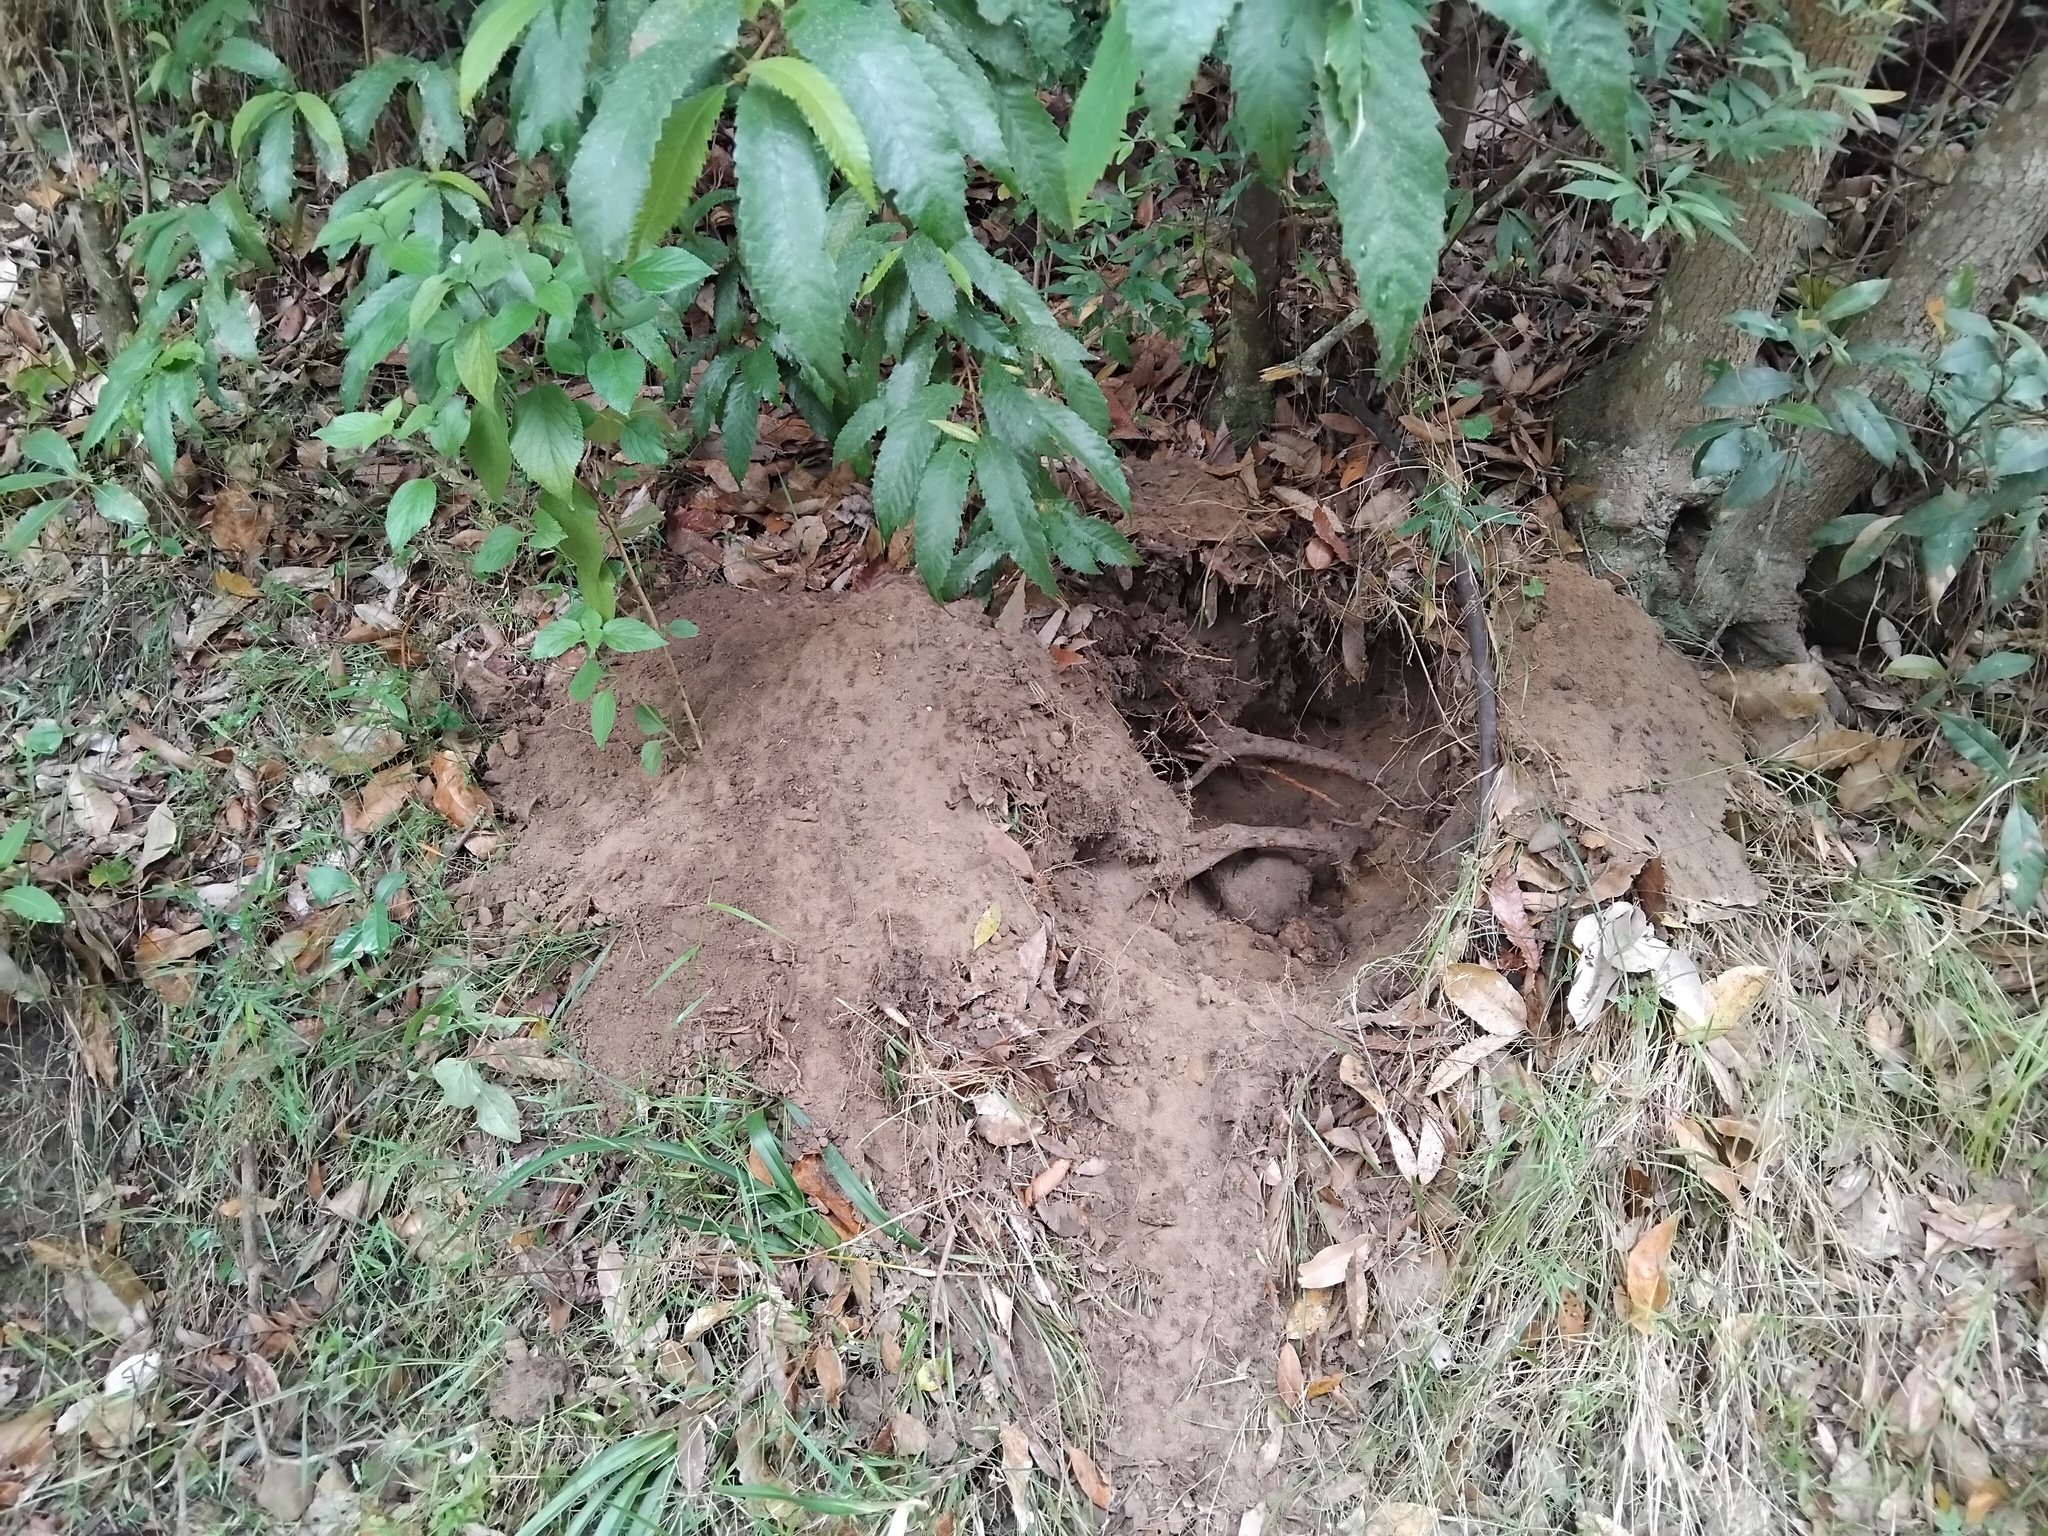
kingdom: Animalia
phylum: Arthropoda
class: Insecta
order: Hymenoptera
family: Formicidae
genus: Myrmecia
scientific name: Myrmecia nigrocincta
